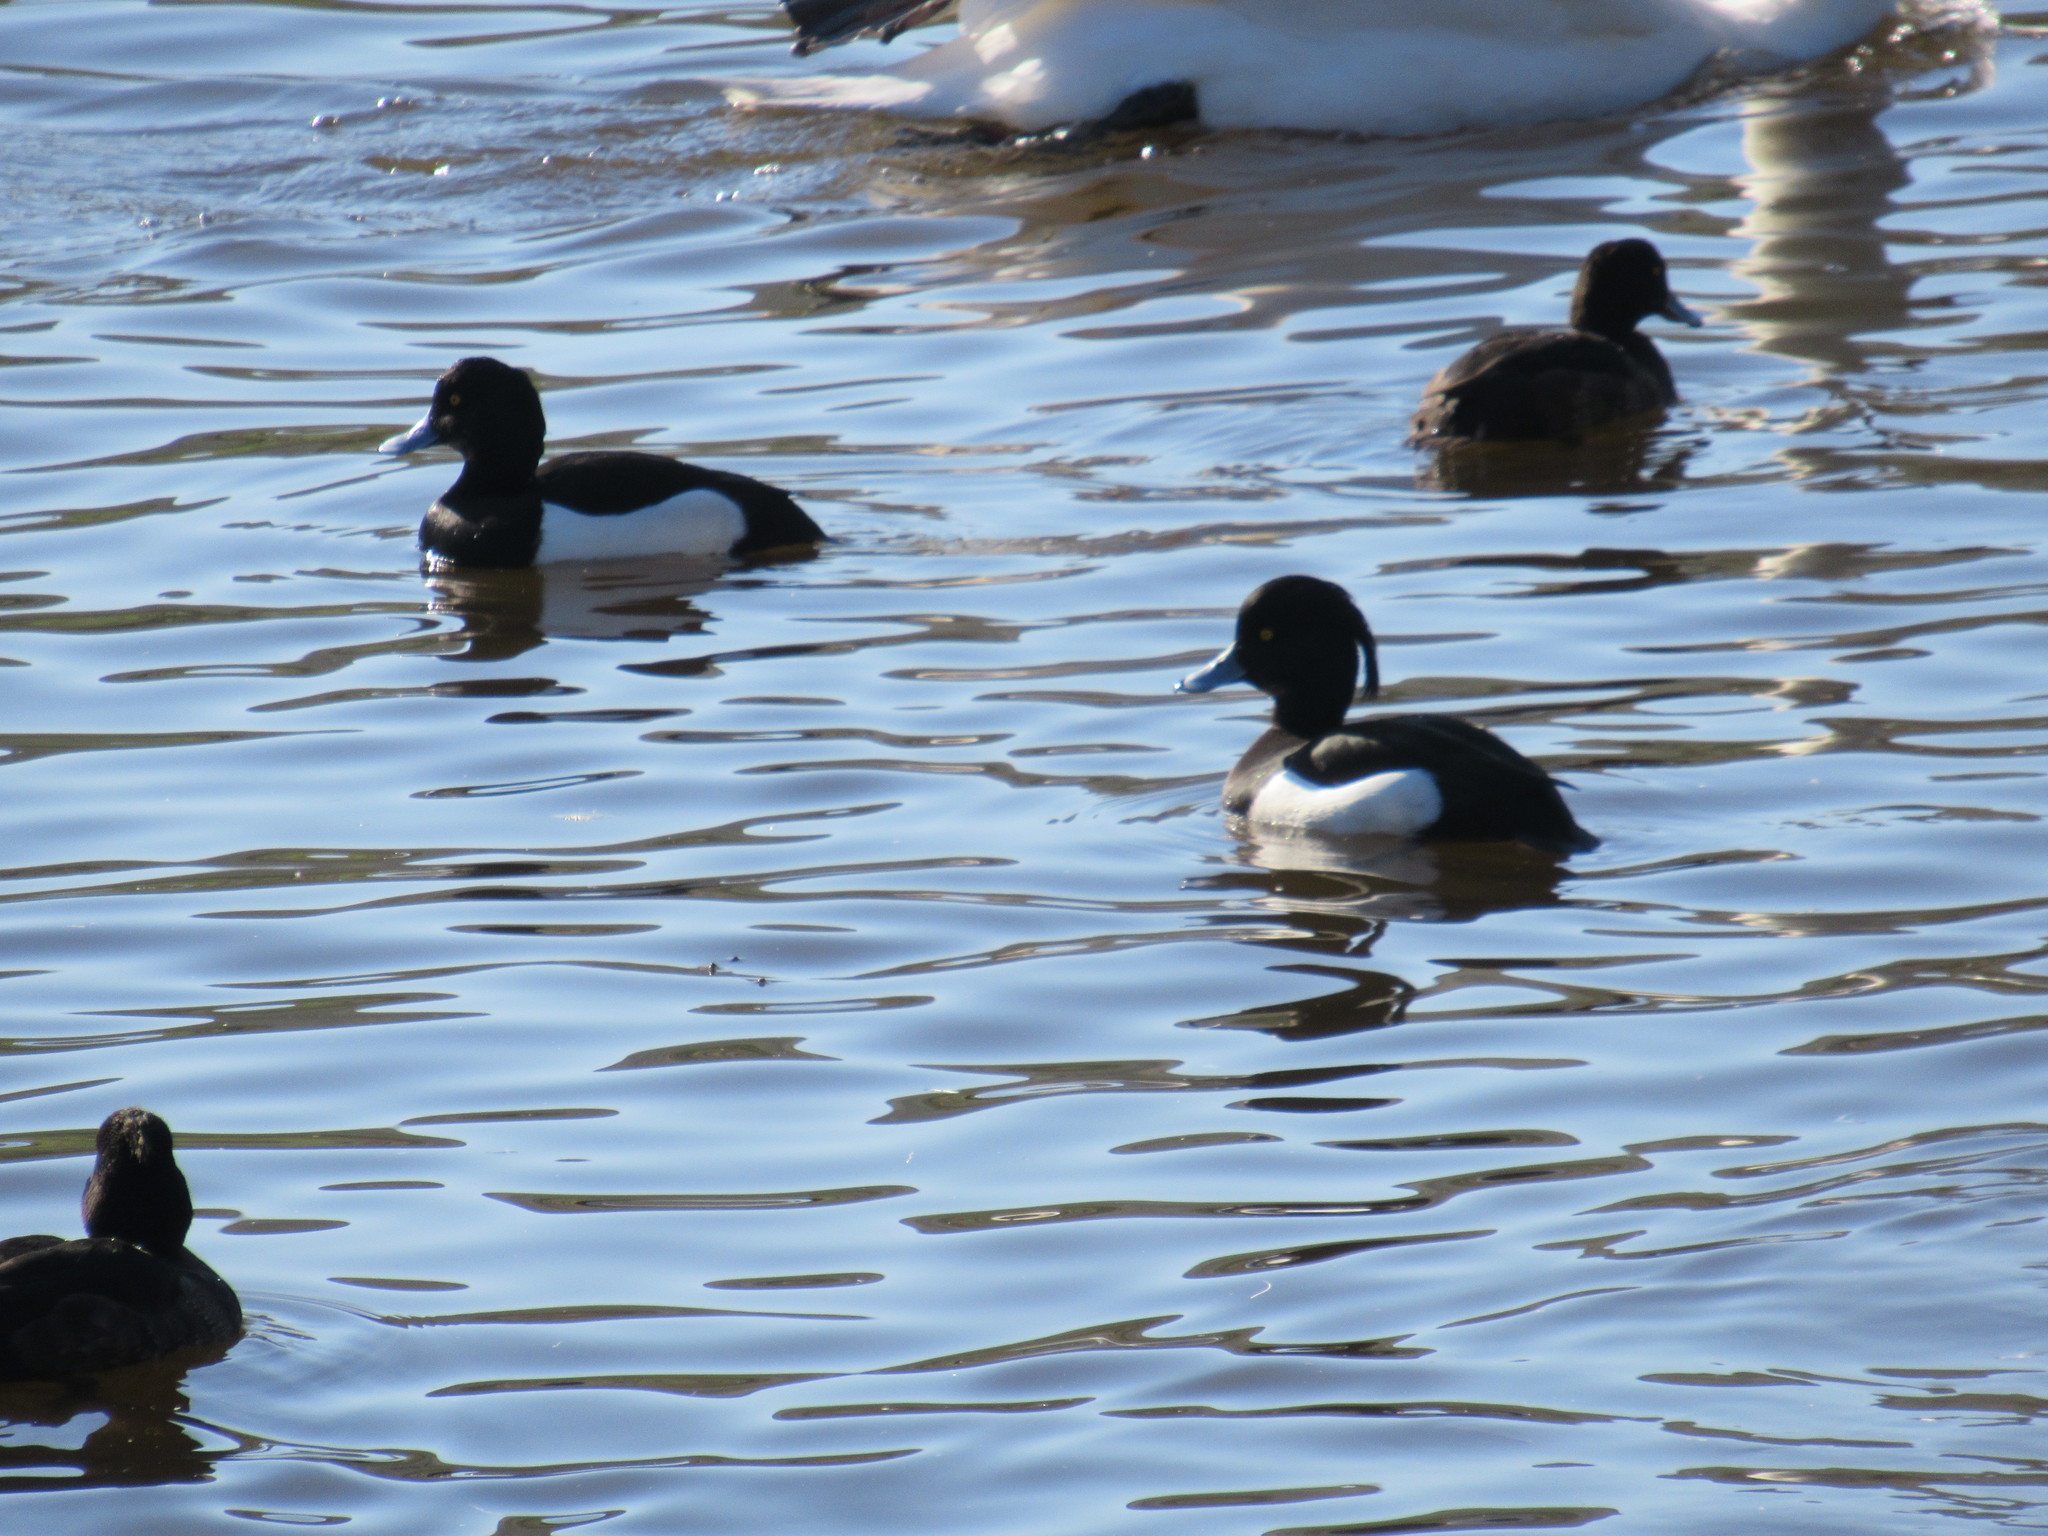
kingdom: Animalia
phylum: Chordata
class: Aves
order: Anseriformes
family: Anatidae
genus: Aythya
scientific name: Aythya fuligula
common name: Tufted duck
